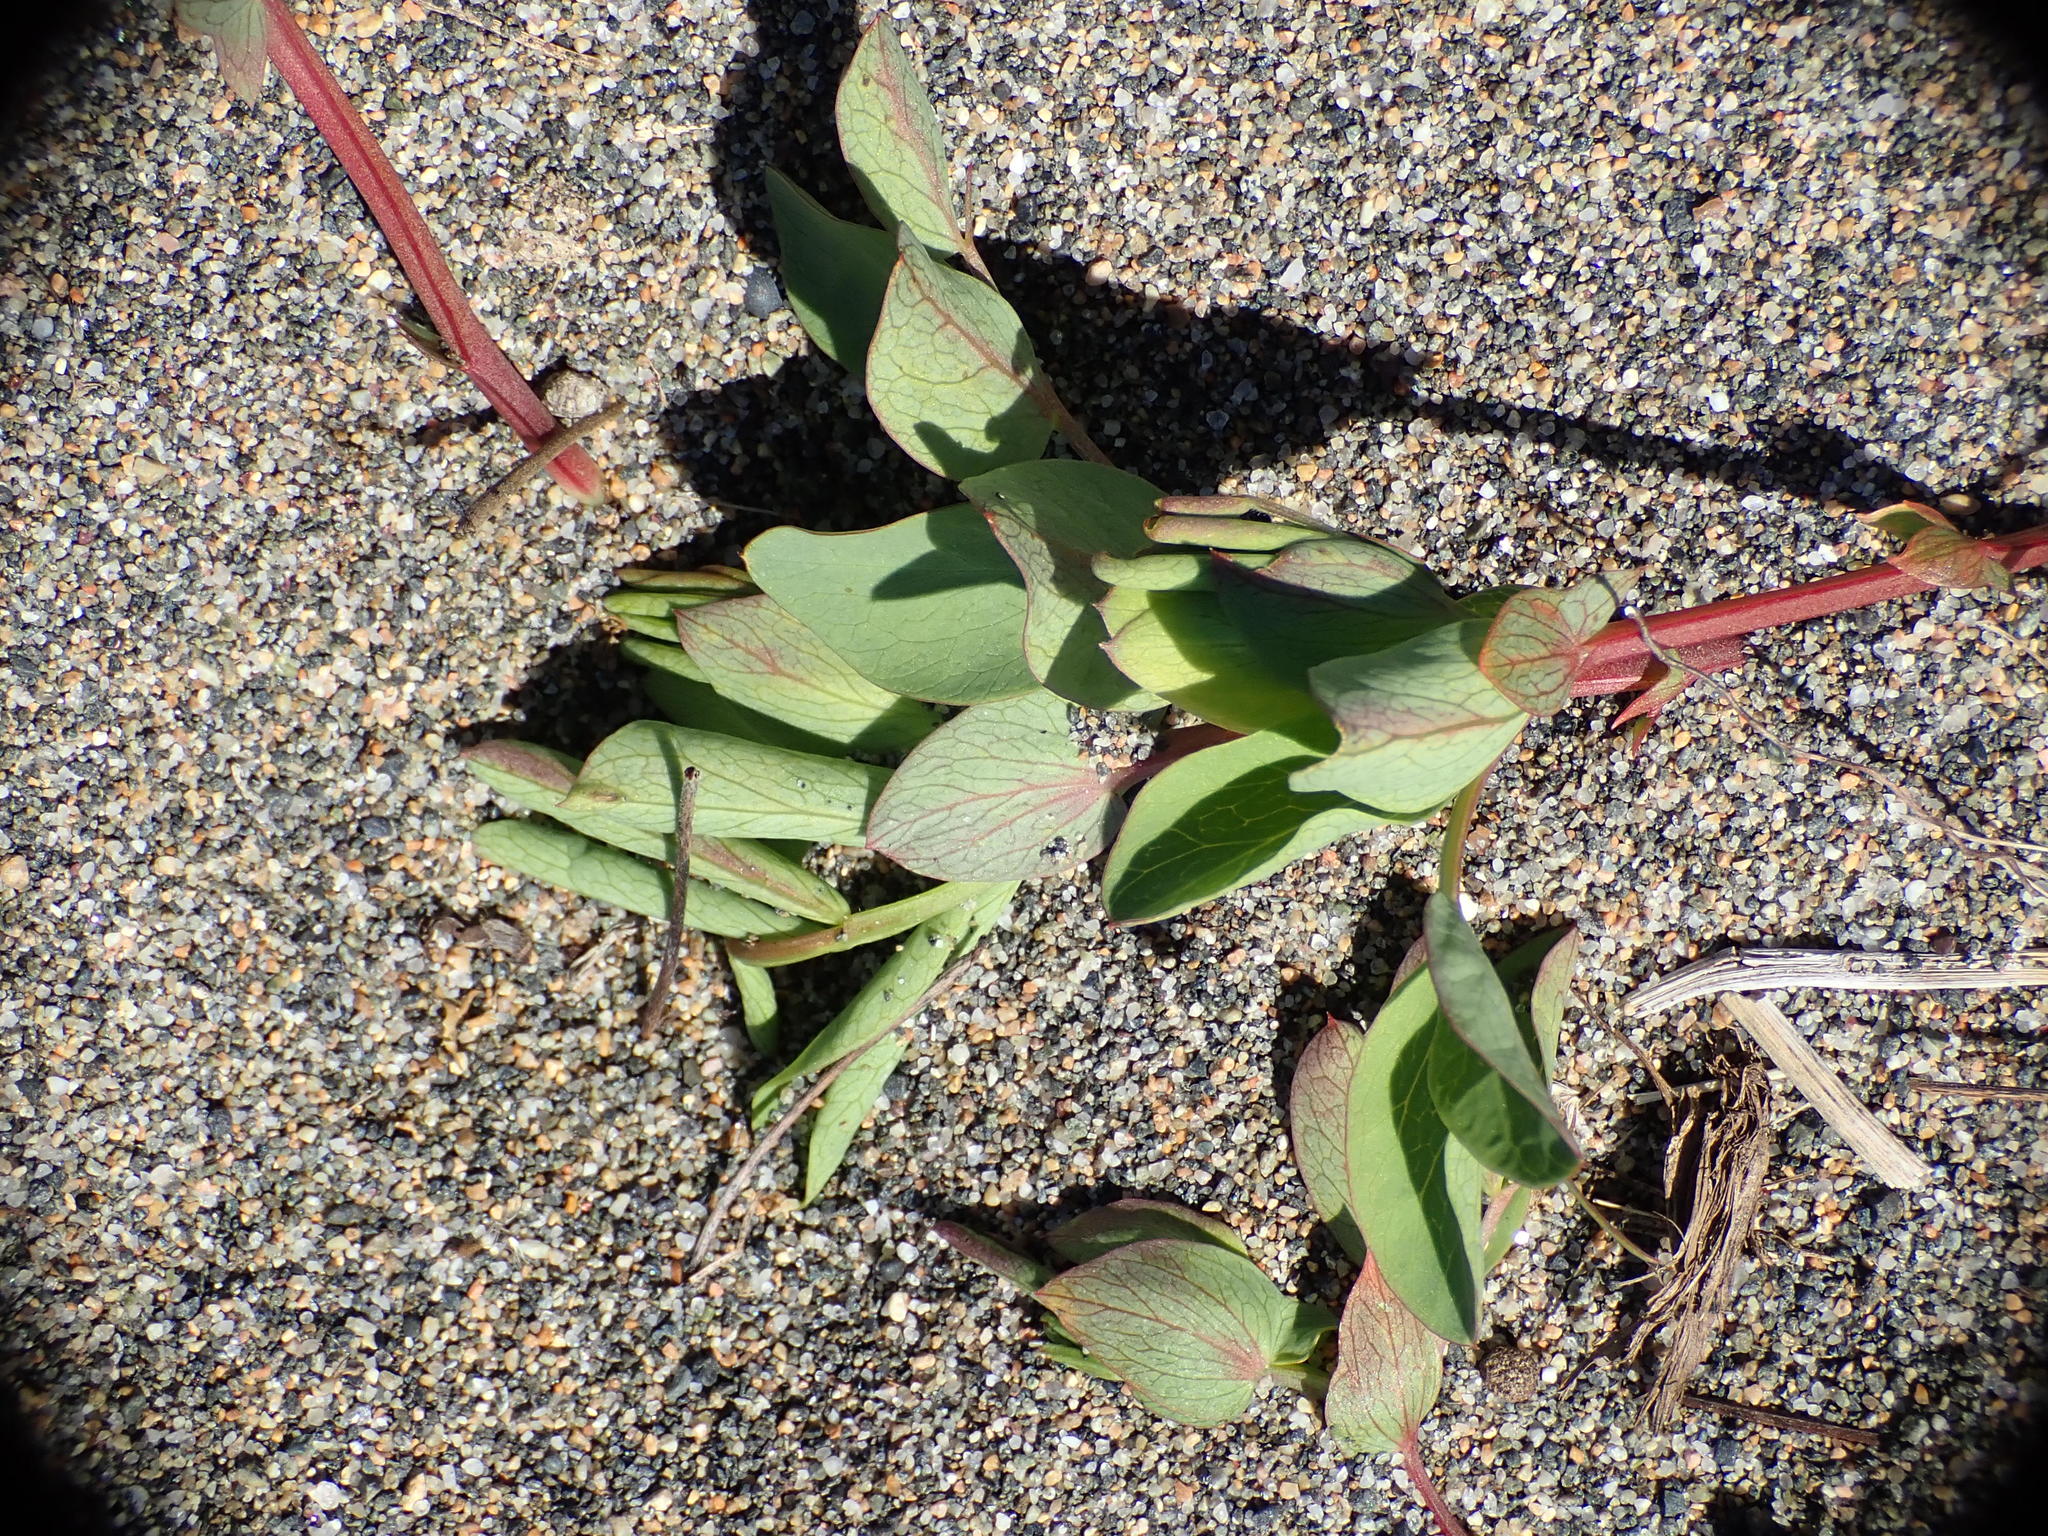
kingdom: Plantae
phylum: Tracheophyta
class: Magnoliopsida
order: Fabales
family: Fabaceae
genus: Lathyrus
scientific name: Lathyrus japonicus
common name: Sea pea
